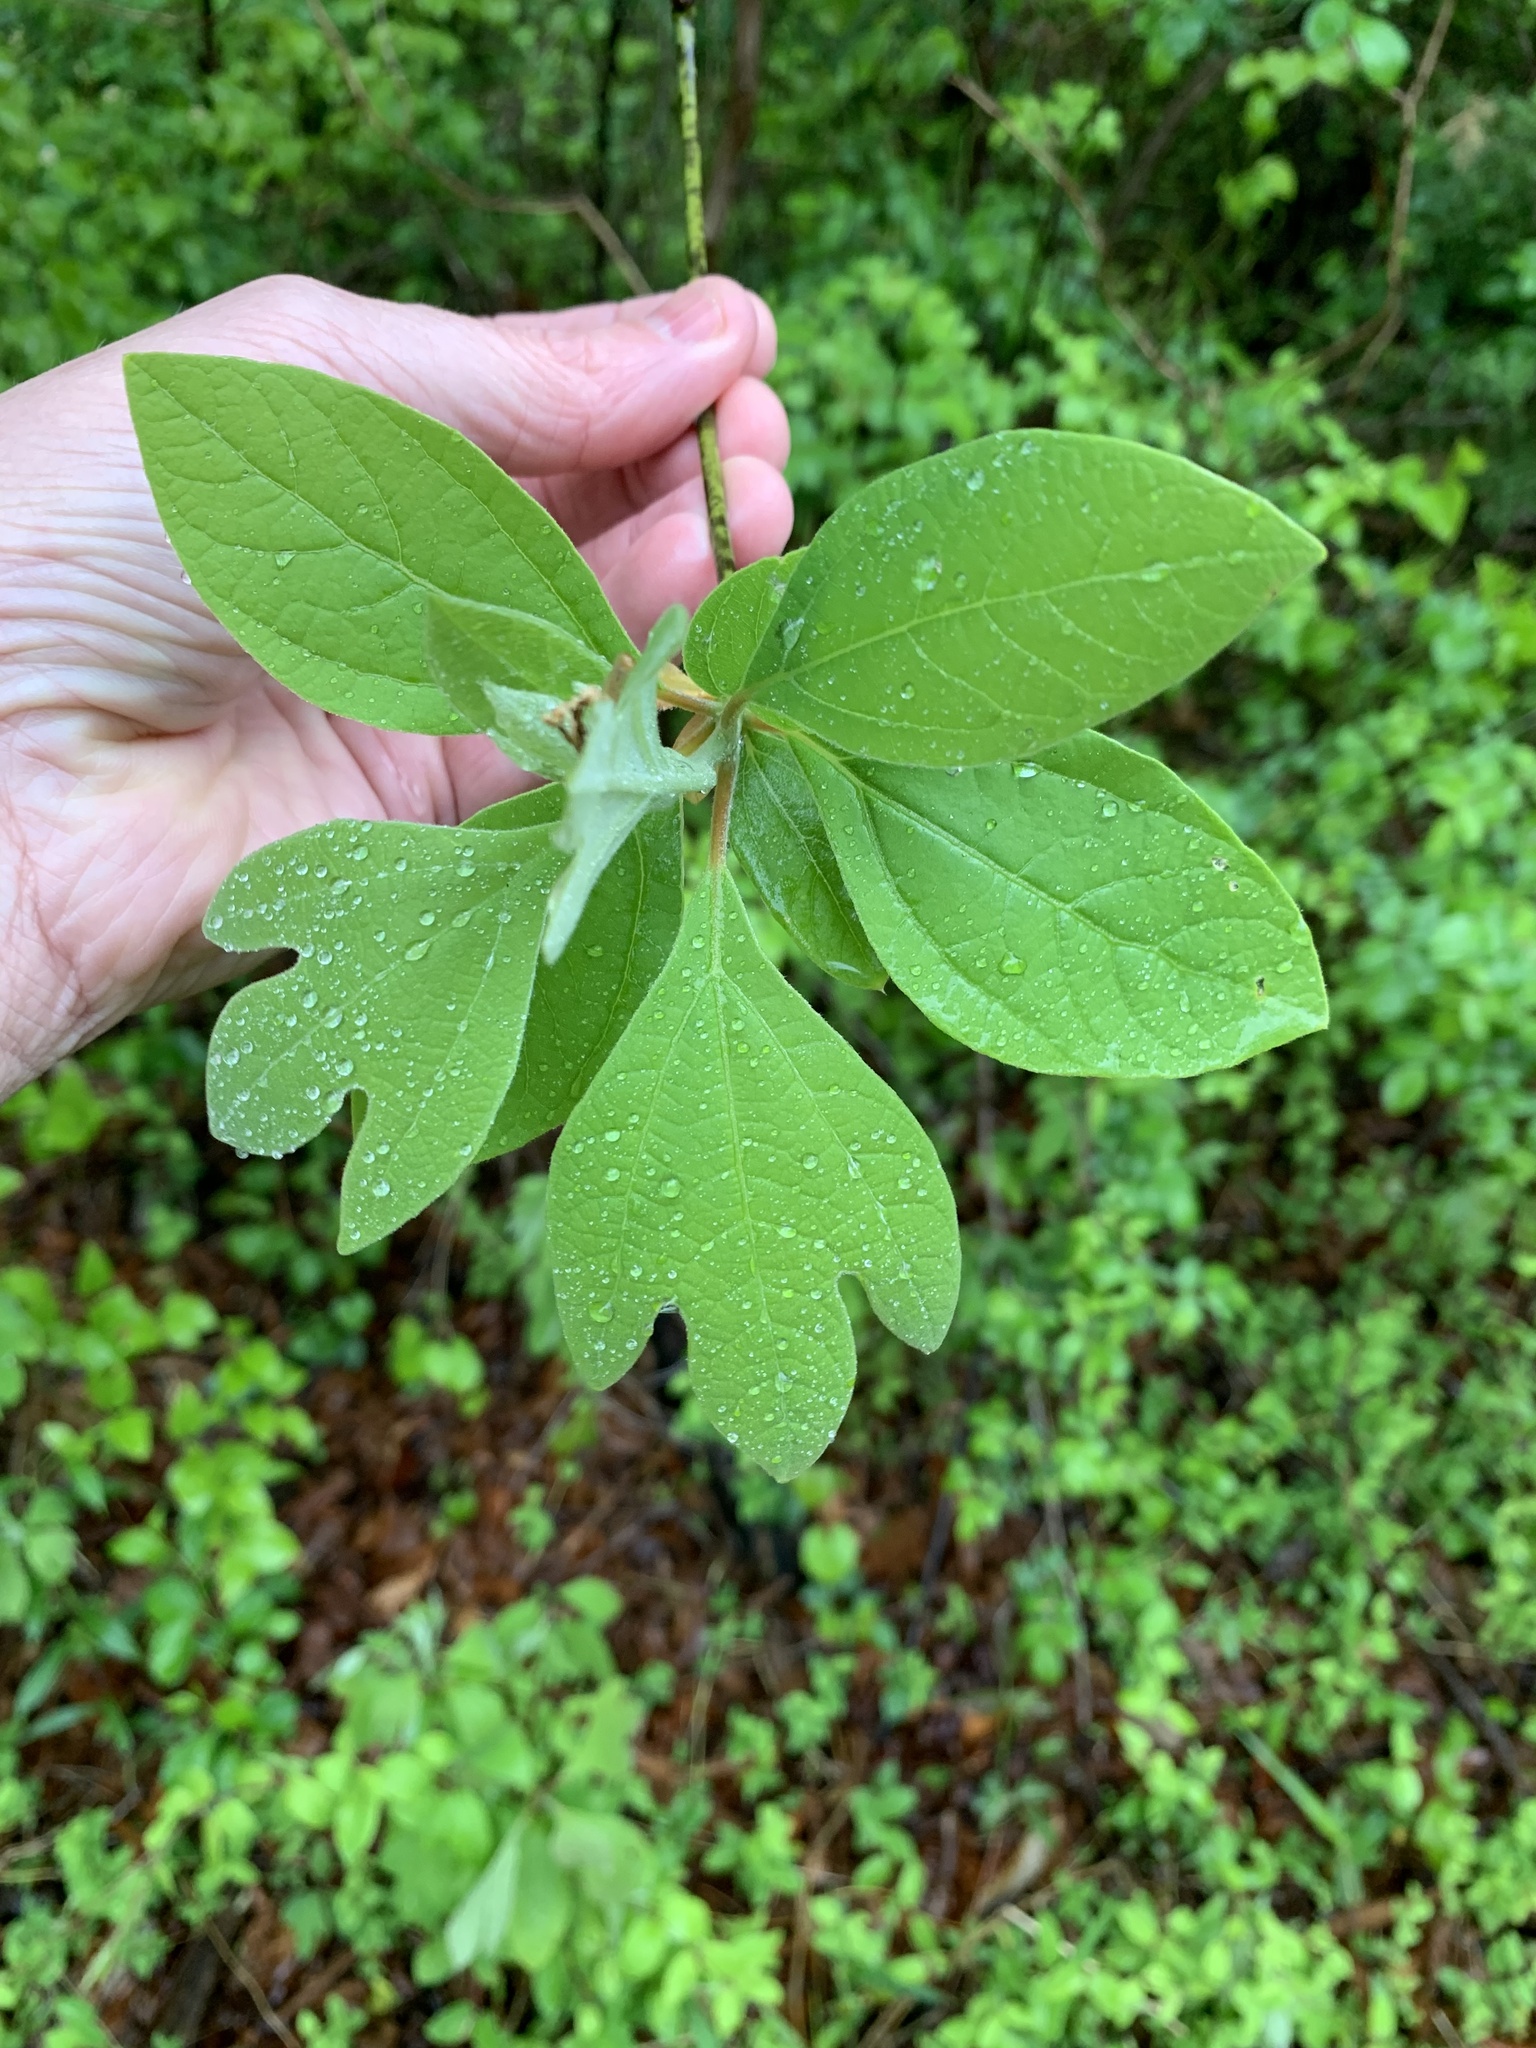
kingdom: Plantae
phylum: Tracheophyta
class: Magnoliopsida
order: Laurales
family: Lauraceae
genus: Sassafras
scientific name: Sassafras albidum
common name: Sassafras
